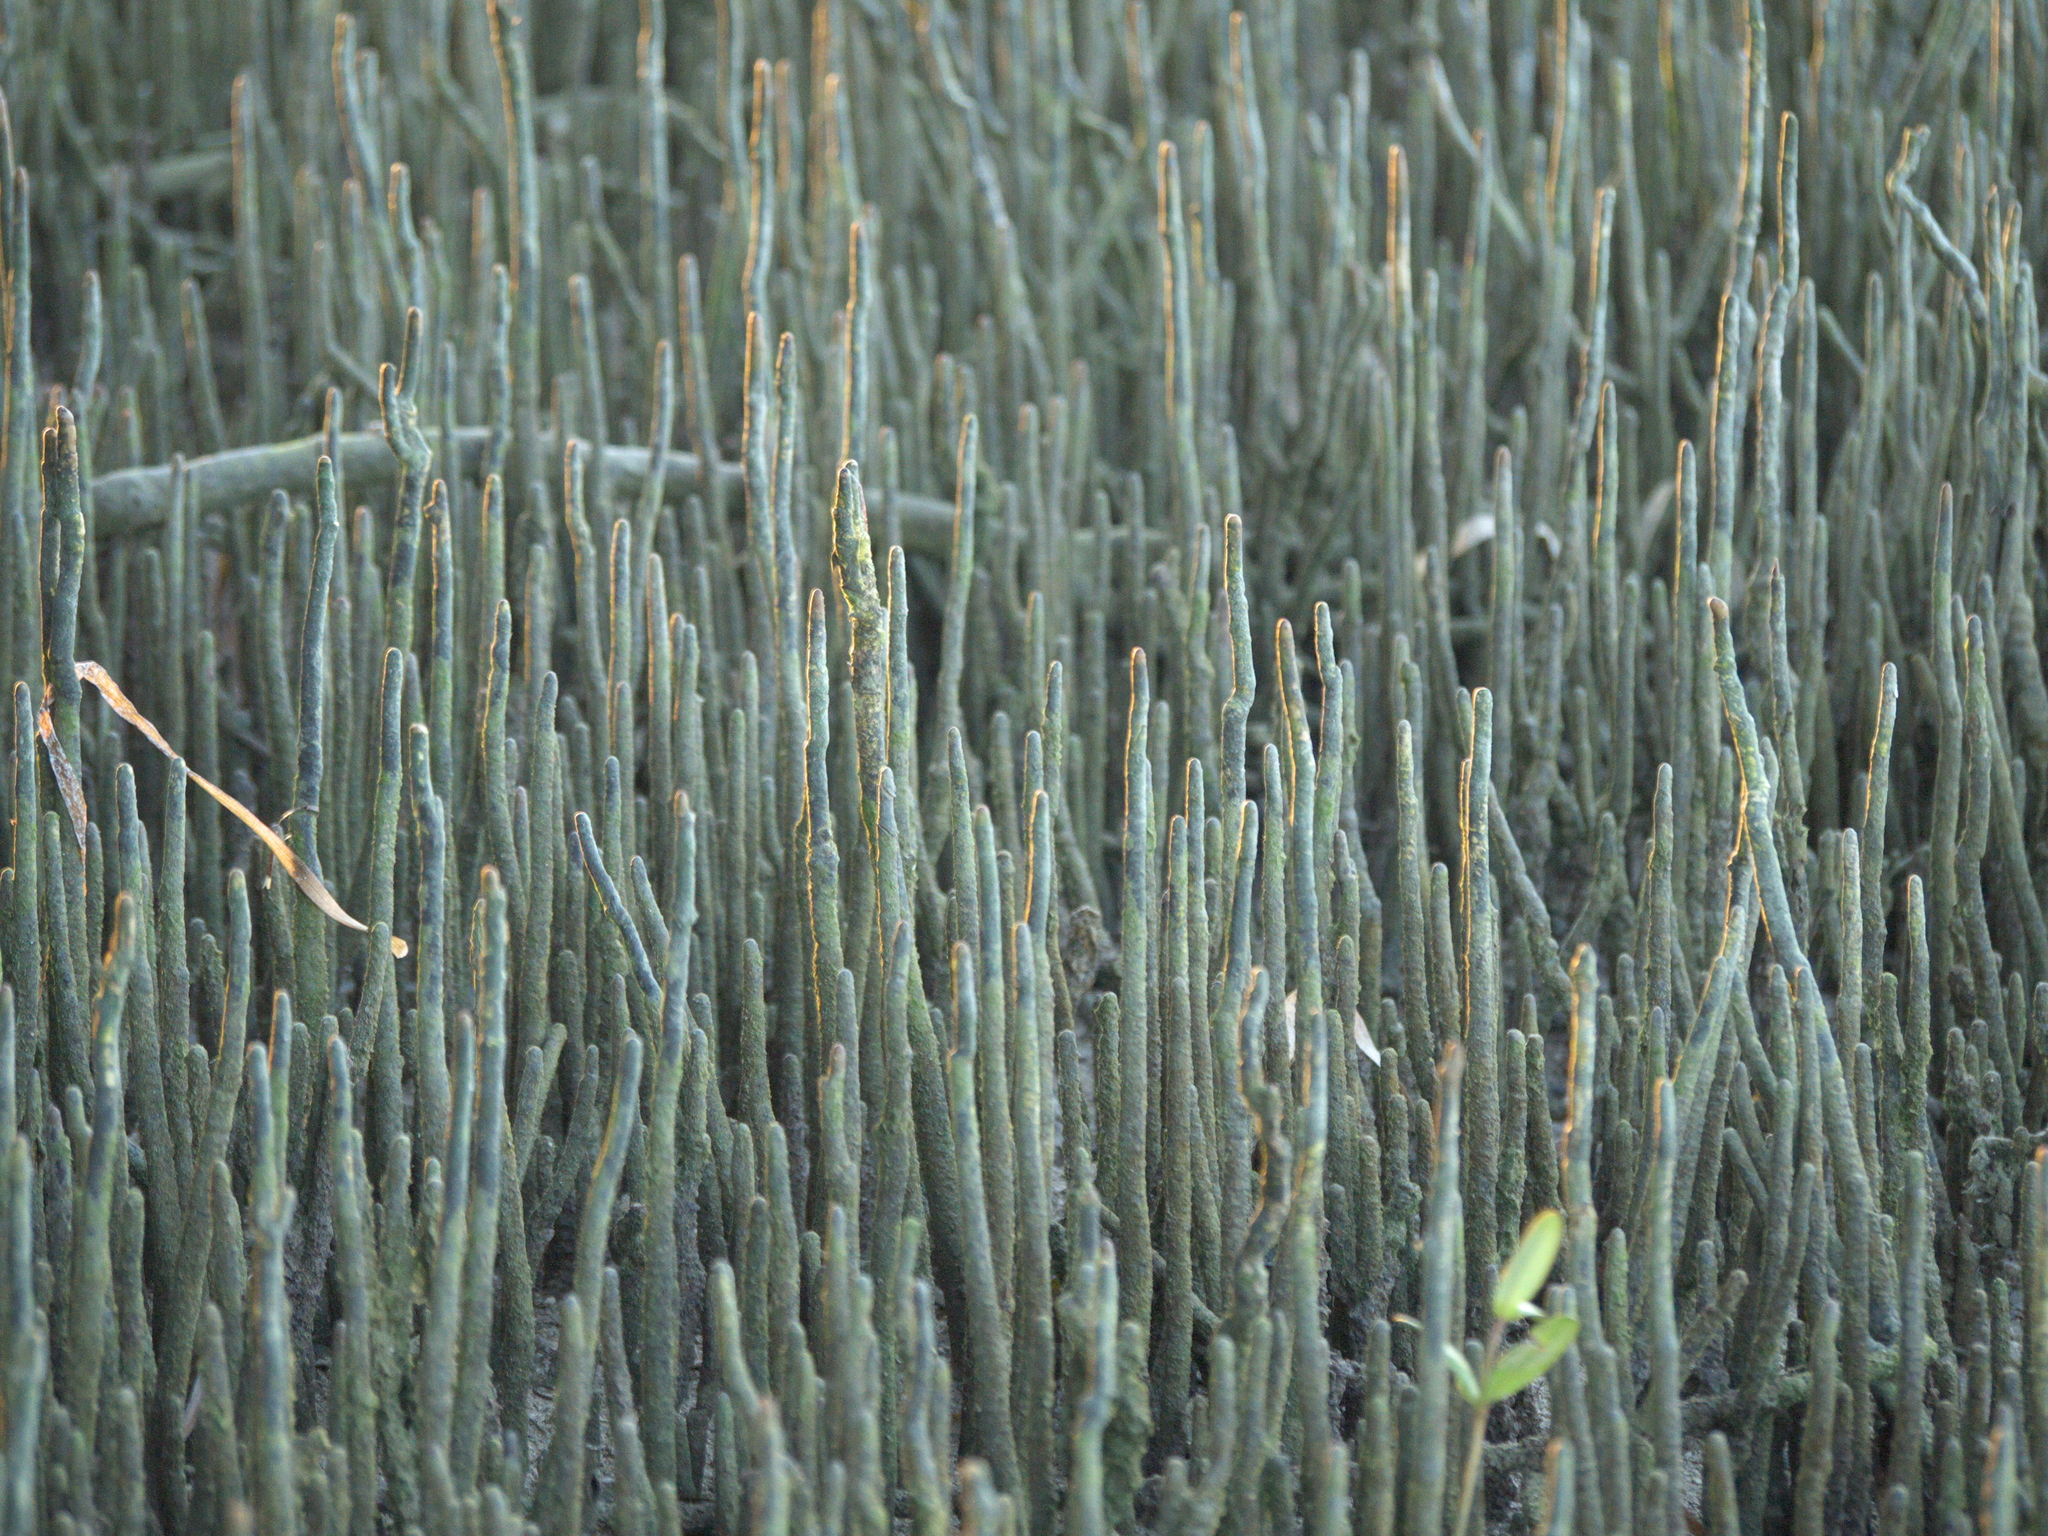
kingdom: Plantae
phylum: Tracheophyta
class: Magnoliopsida
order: Lamiales
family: Acanthaceae
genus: Avicennia
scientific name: Avicennia germinans
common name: Black mangrove
